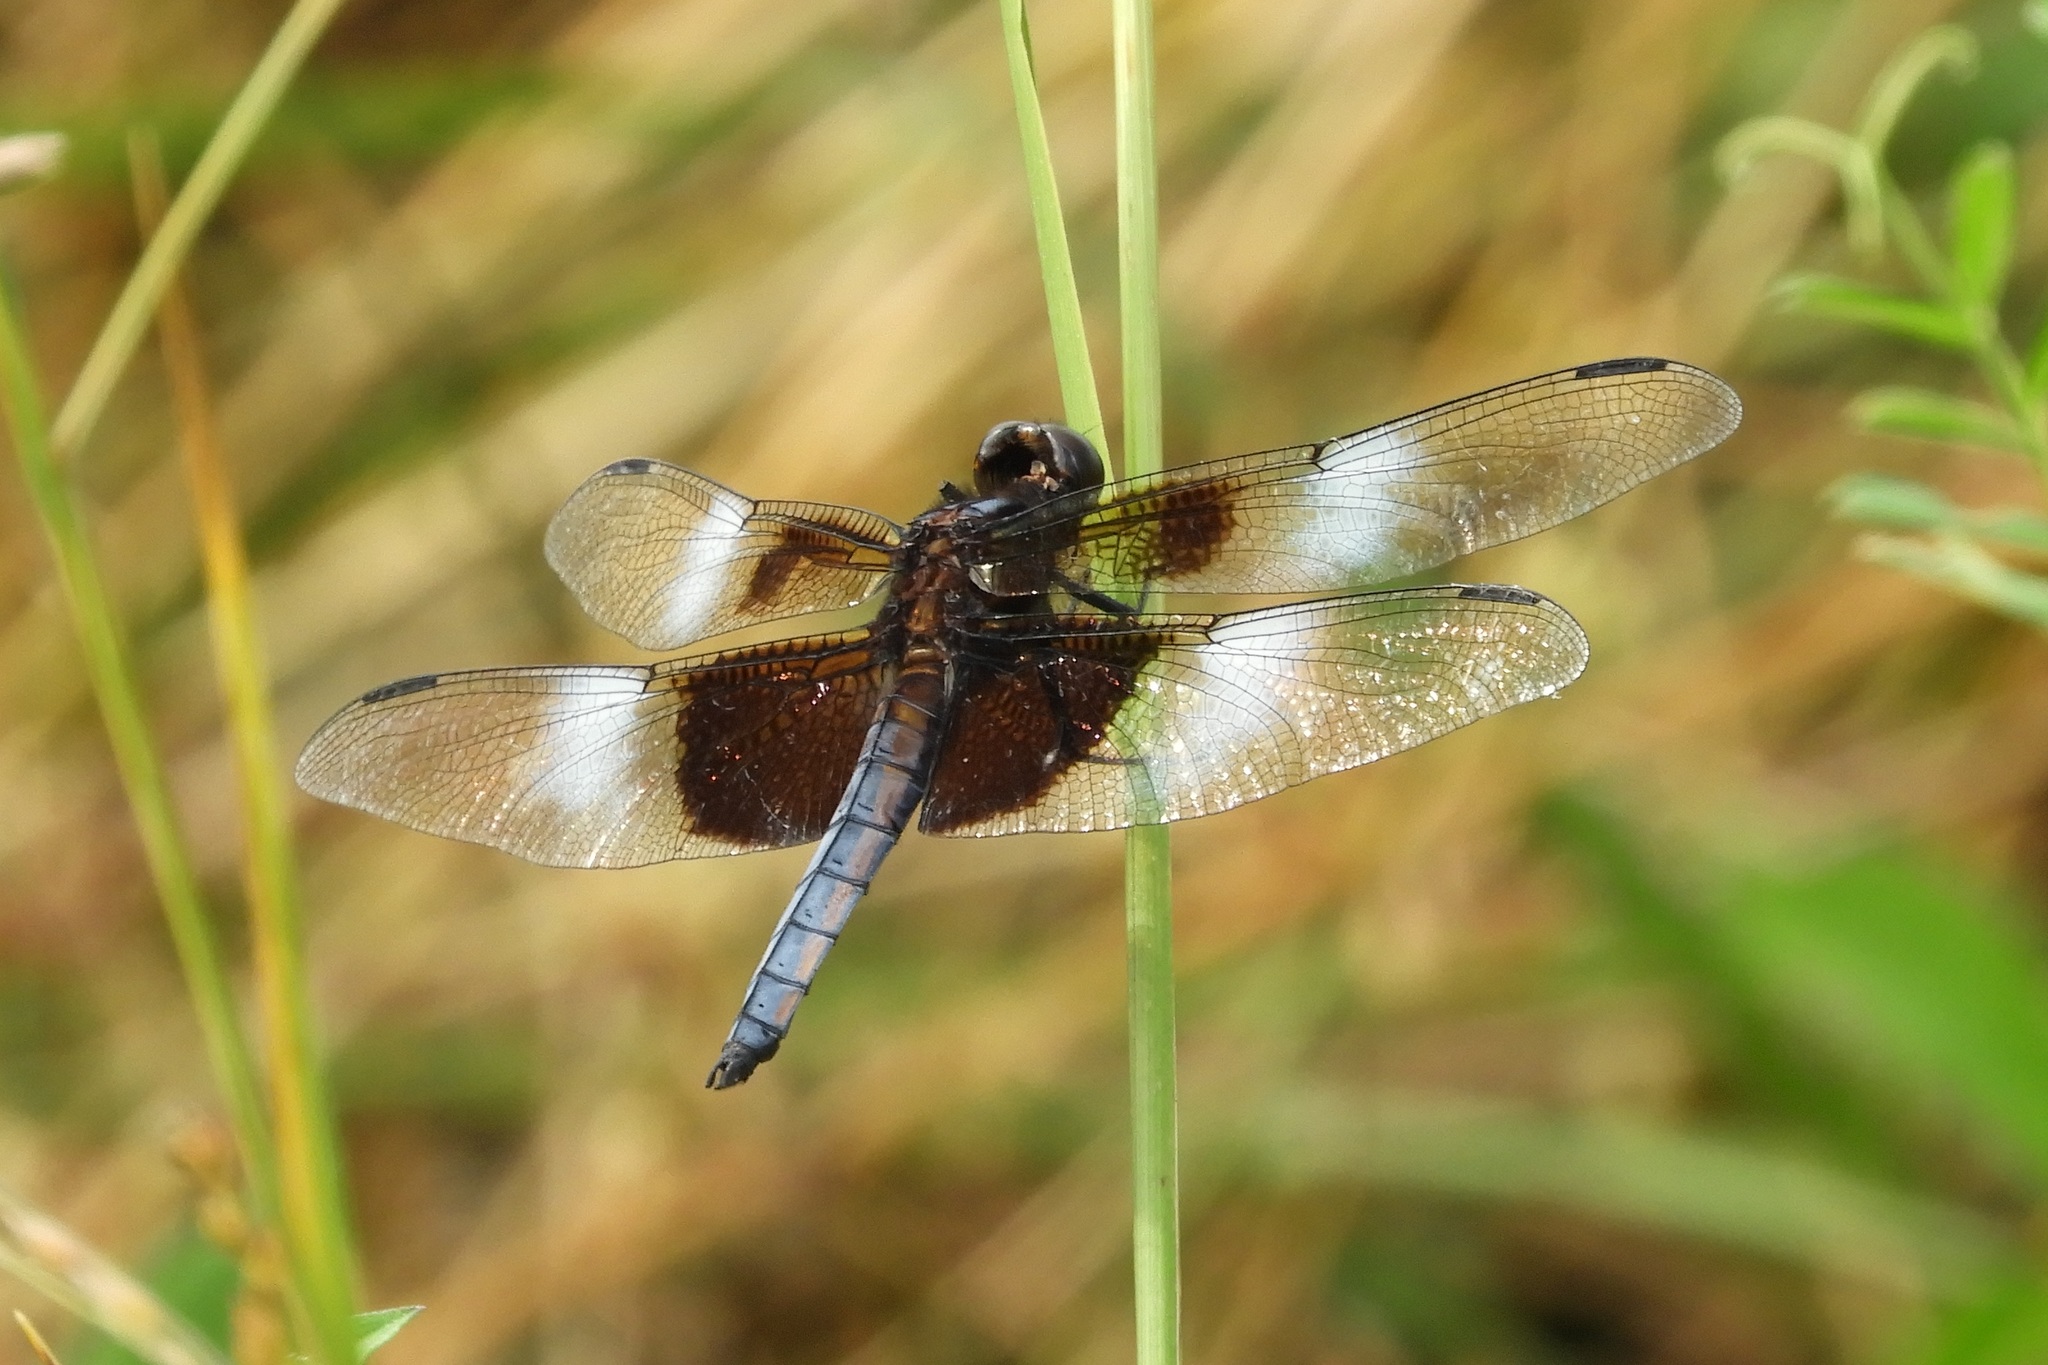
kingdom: Animalia
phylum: Arthropoda
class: Insecta
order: Odonata
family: Libellulidae
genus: Libellula
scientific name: Libellula luctuosa
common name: Widow skimmer
